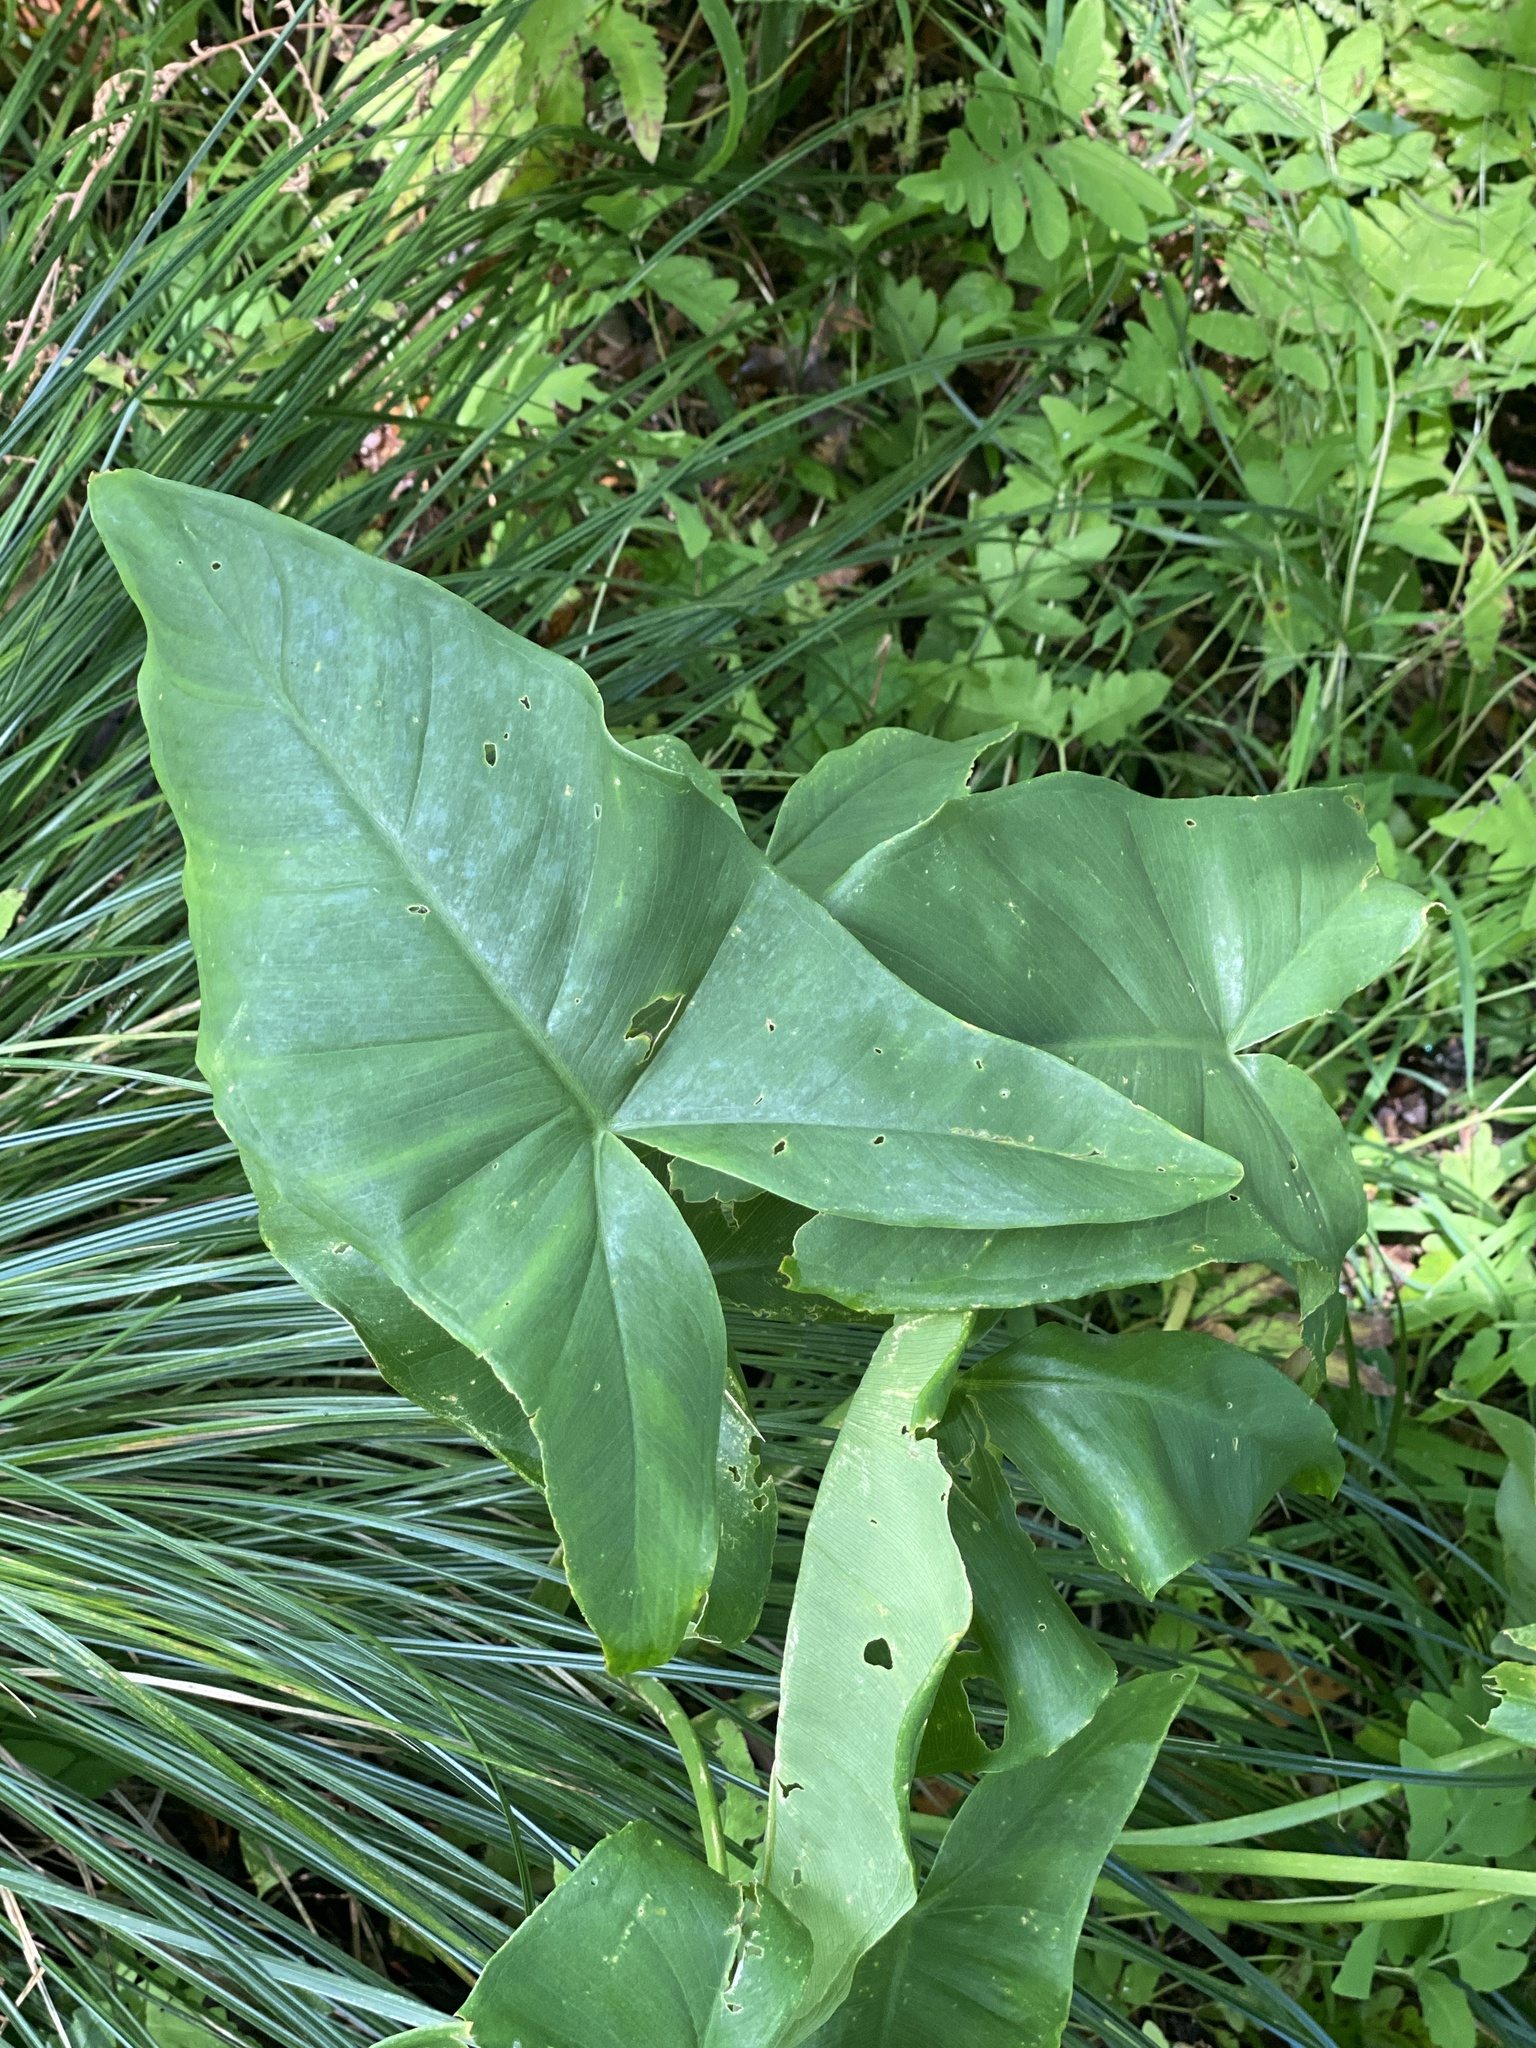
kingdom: Plantae
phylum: Tracheophyta
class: Liliopsida
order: Alismatales
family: Araceae
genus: Peltandra
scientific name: Peltandra virginica
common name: Arrow arum
